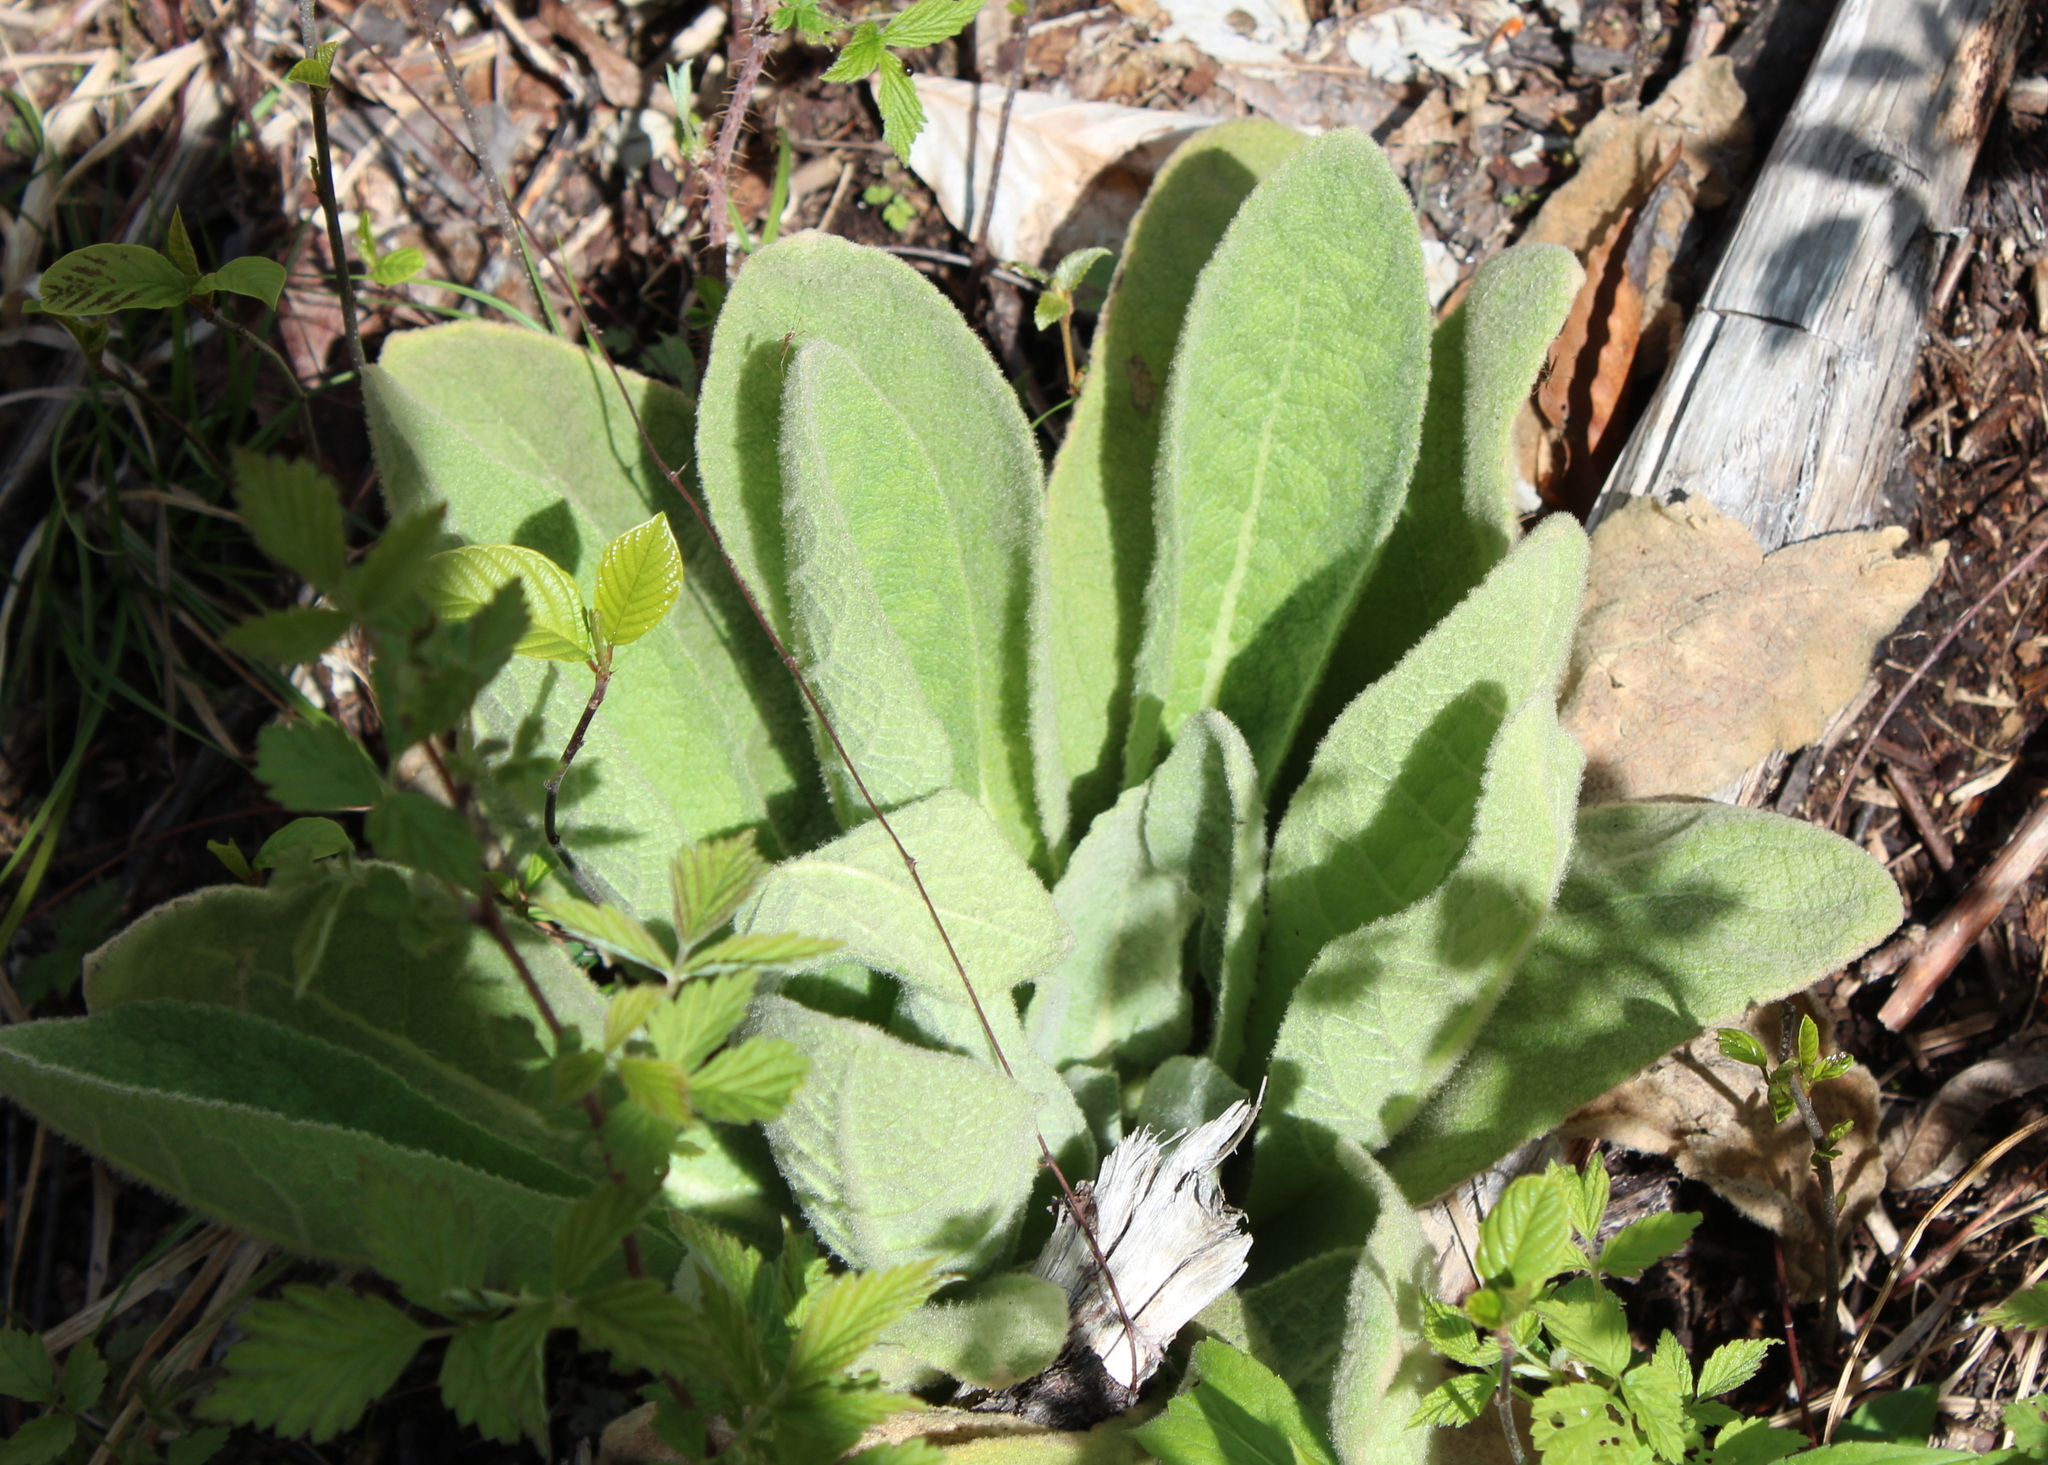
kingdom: Plantae
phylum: Tracheophyta
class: Magnoliopsida
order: Lamiales
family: Scrophulariaceae
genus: Verbascum
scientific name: Verbascum thapsus
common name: Common mullein
